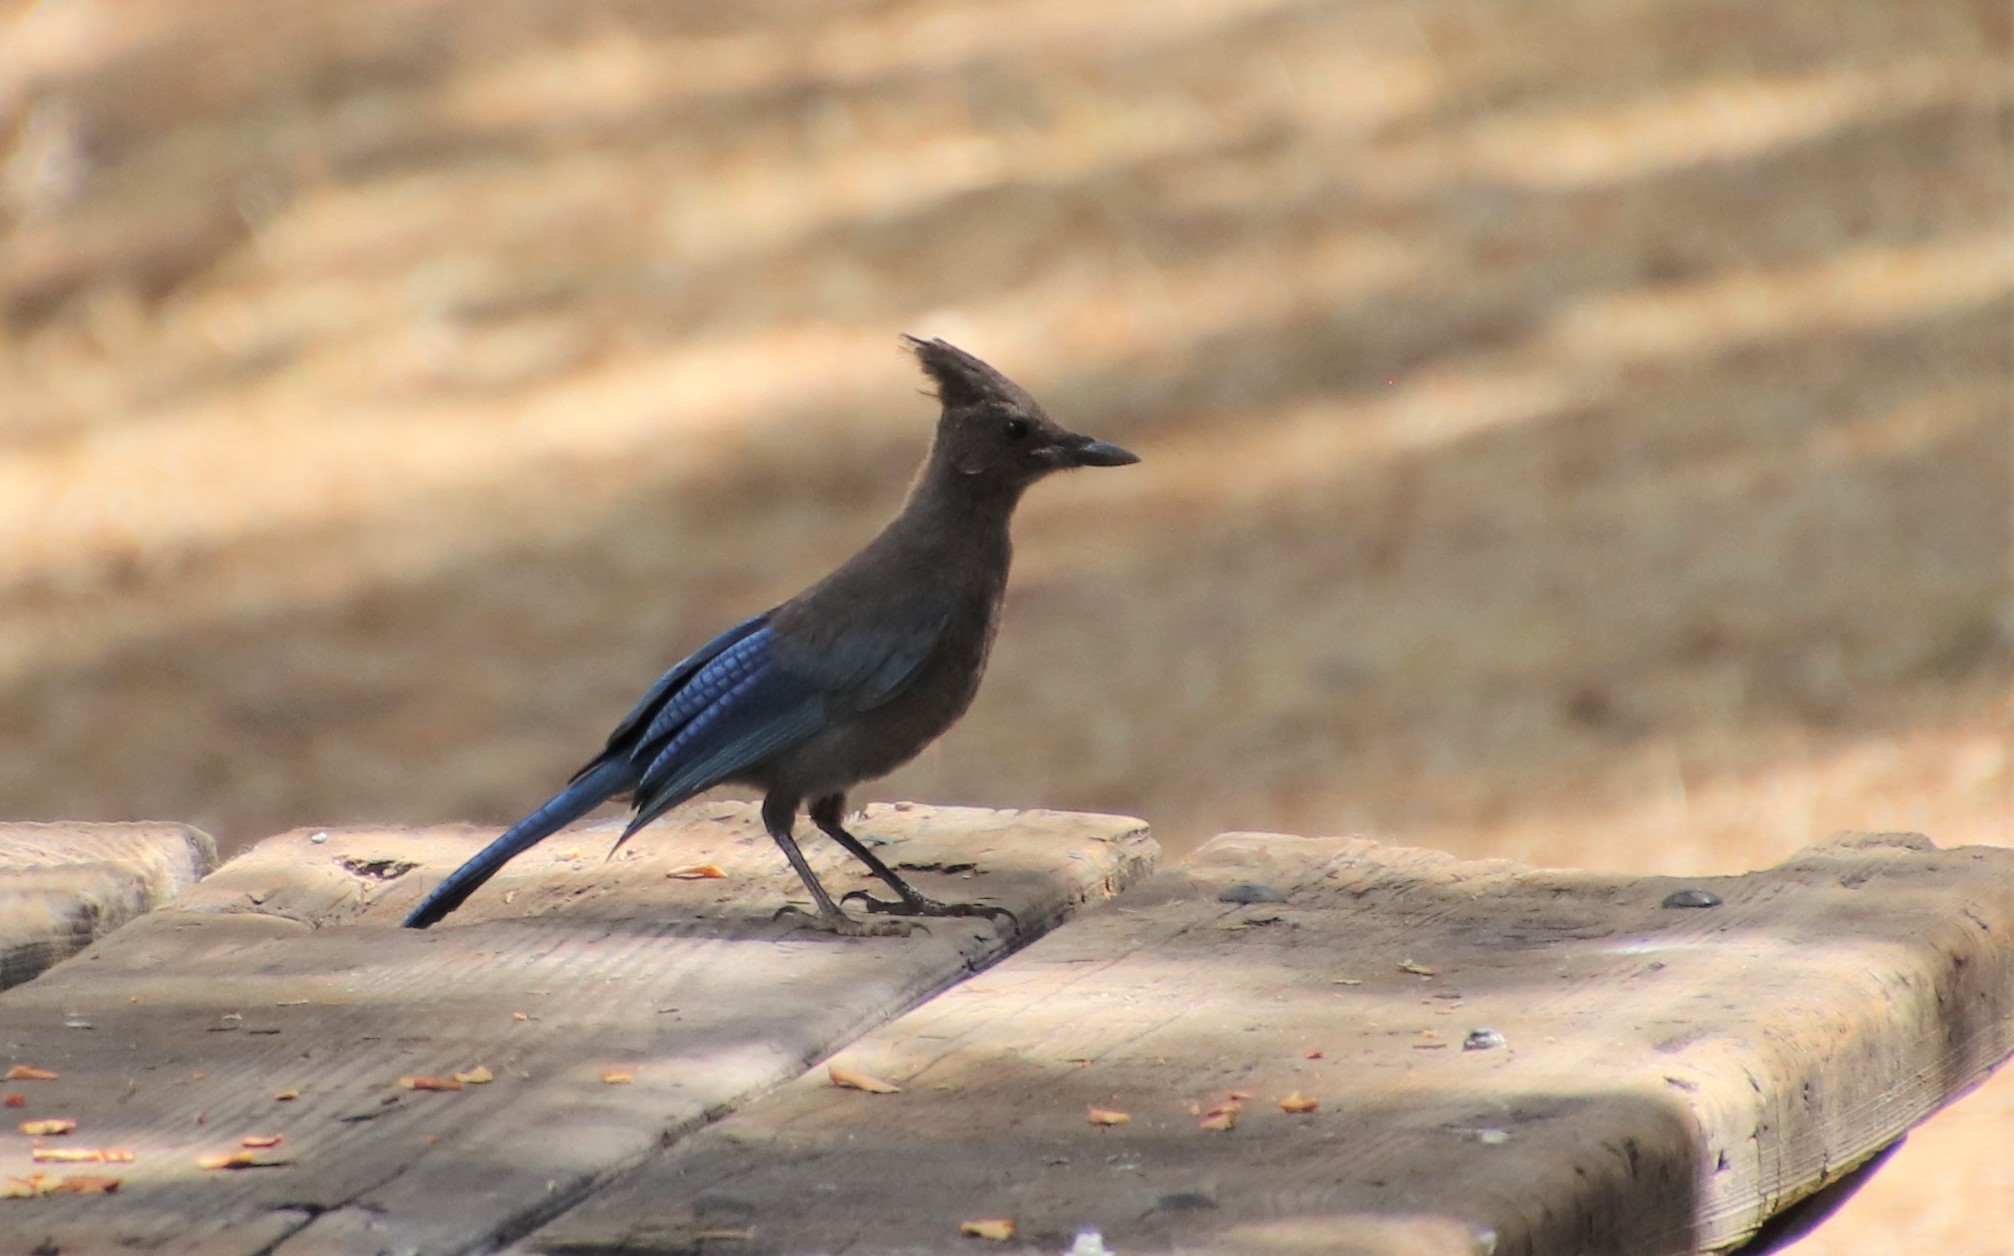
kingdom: Animalia
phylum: Chordata
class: Aves
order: Passeriformes
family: Corvidae
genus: Cyanocitta
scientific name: Cyanocitta stelleri
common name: Steller's jay
